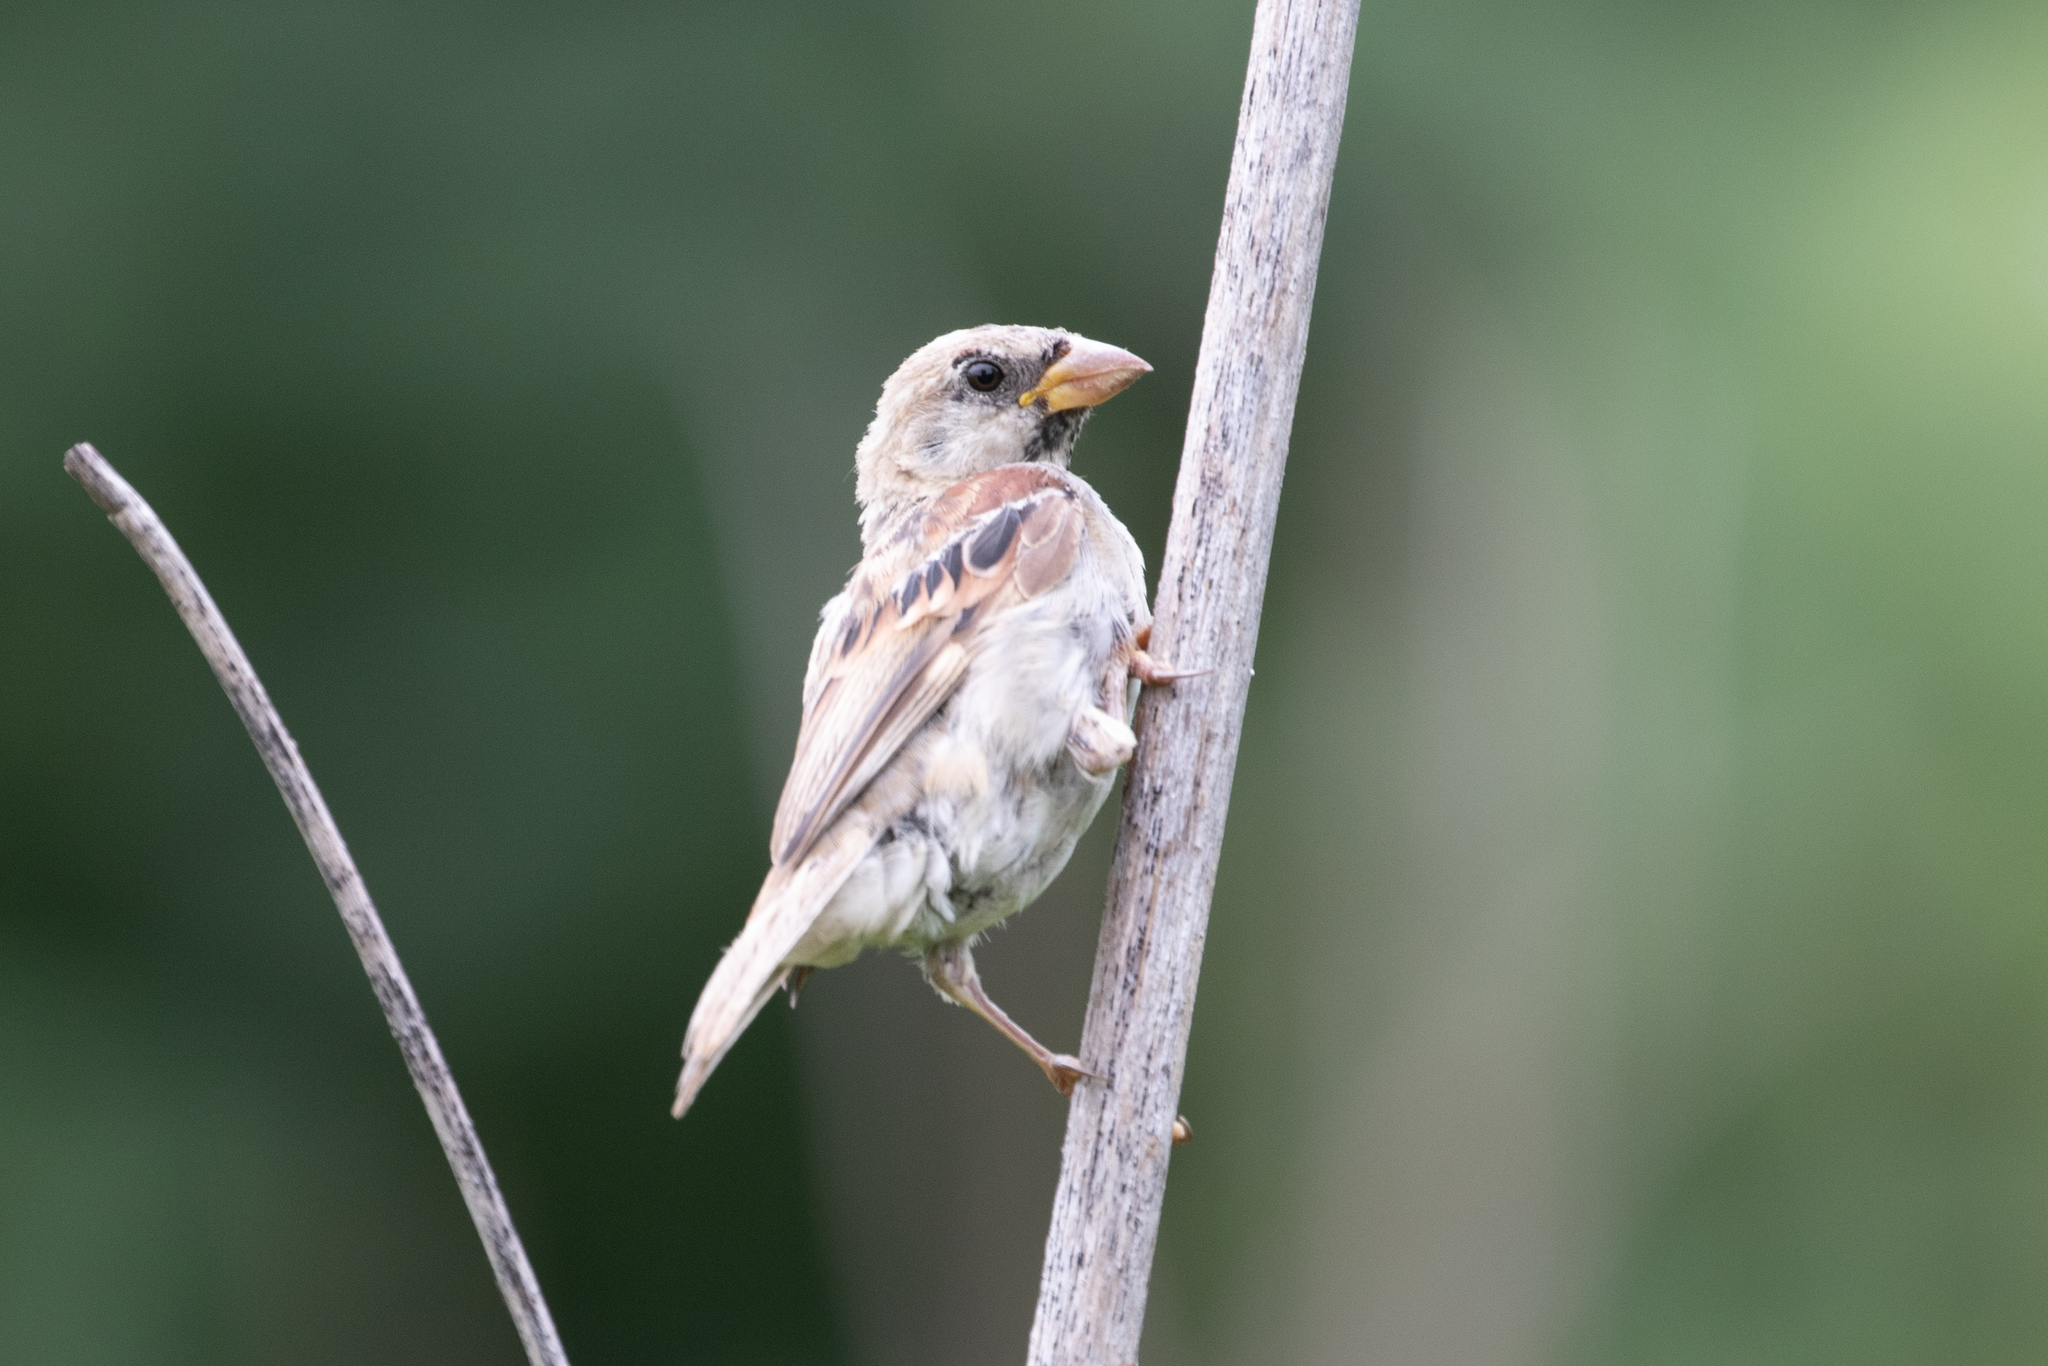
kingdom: Animalia
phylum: Chordata
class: Aves
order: Passeriformes
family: Passeridae
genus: Passer
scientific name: Passer domesticus
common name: House sparrow
